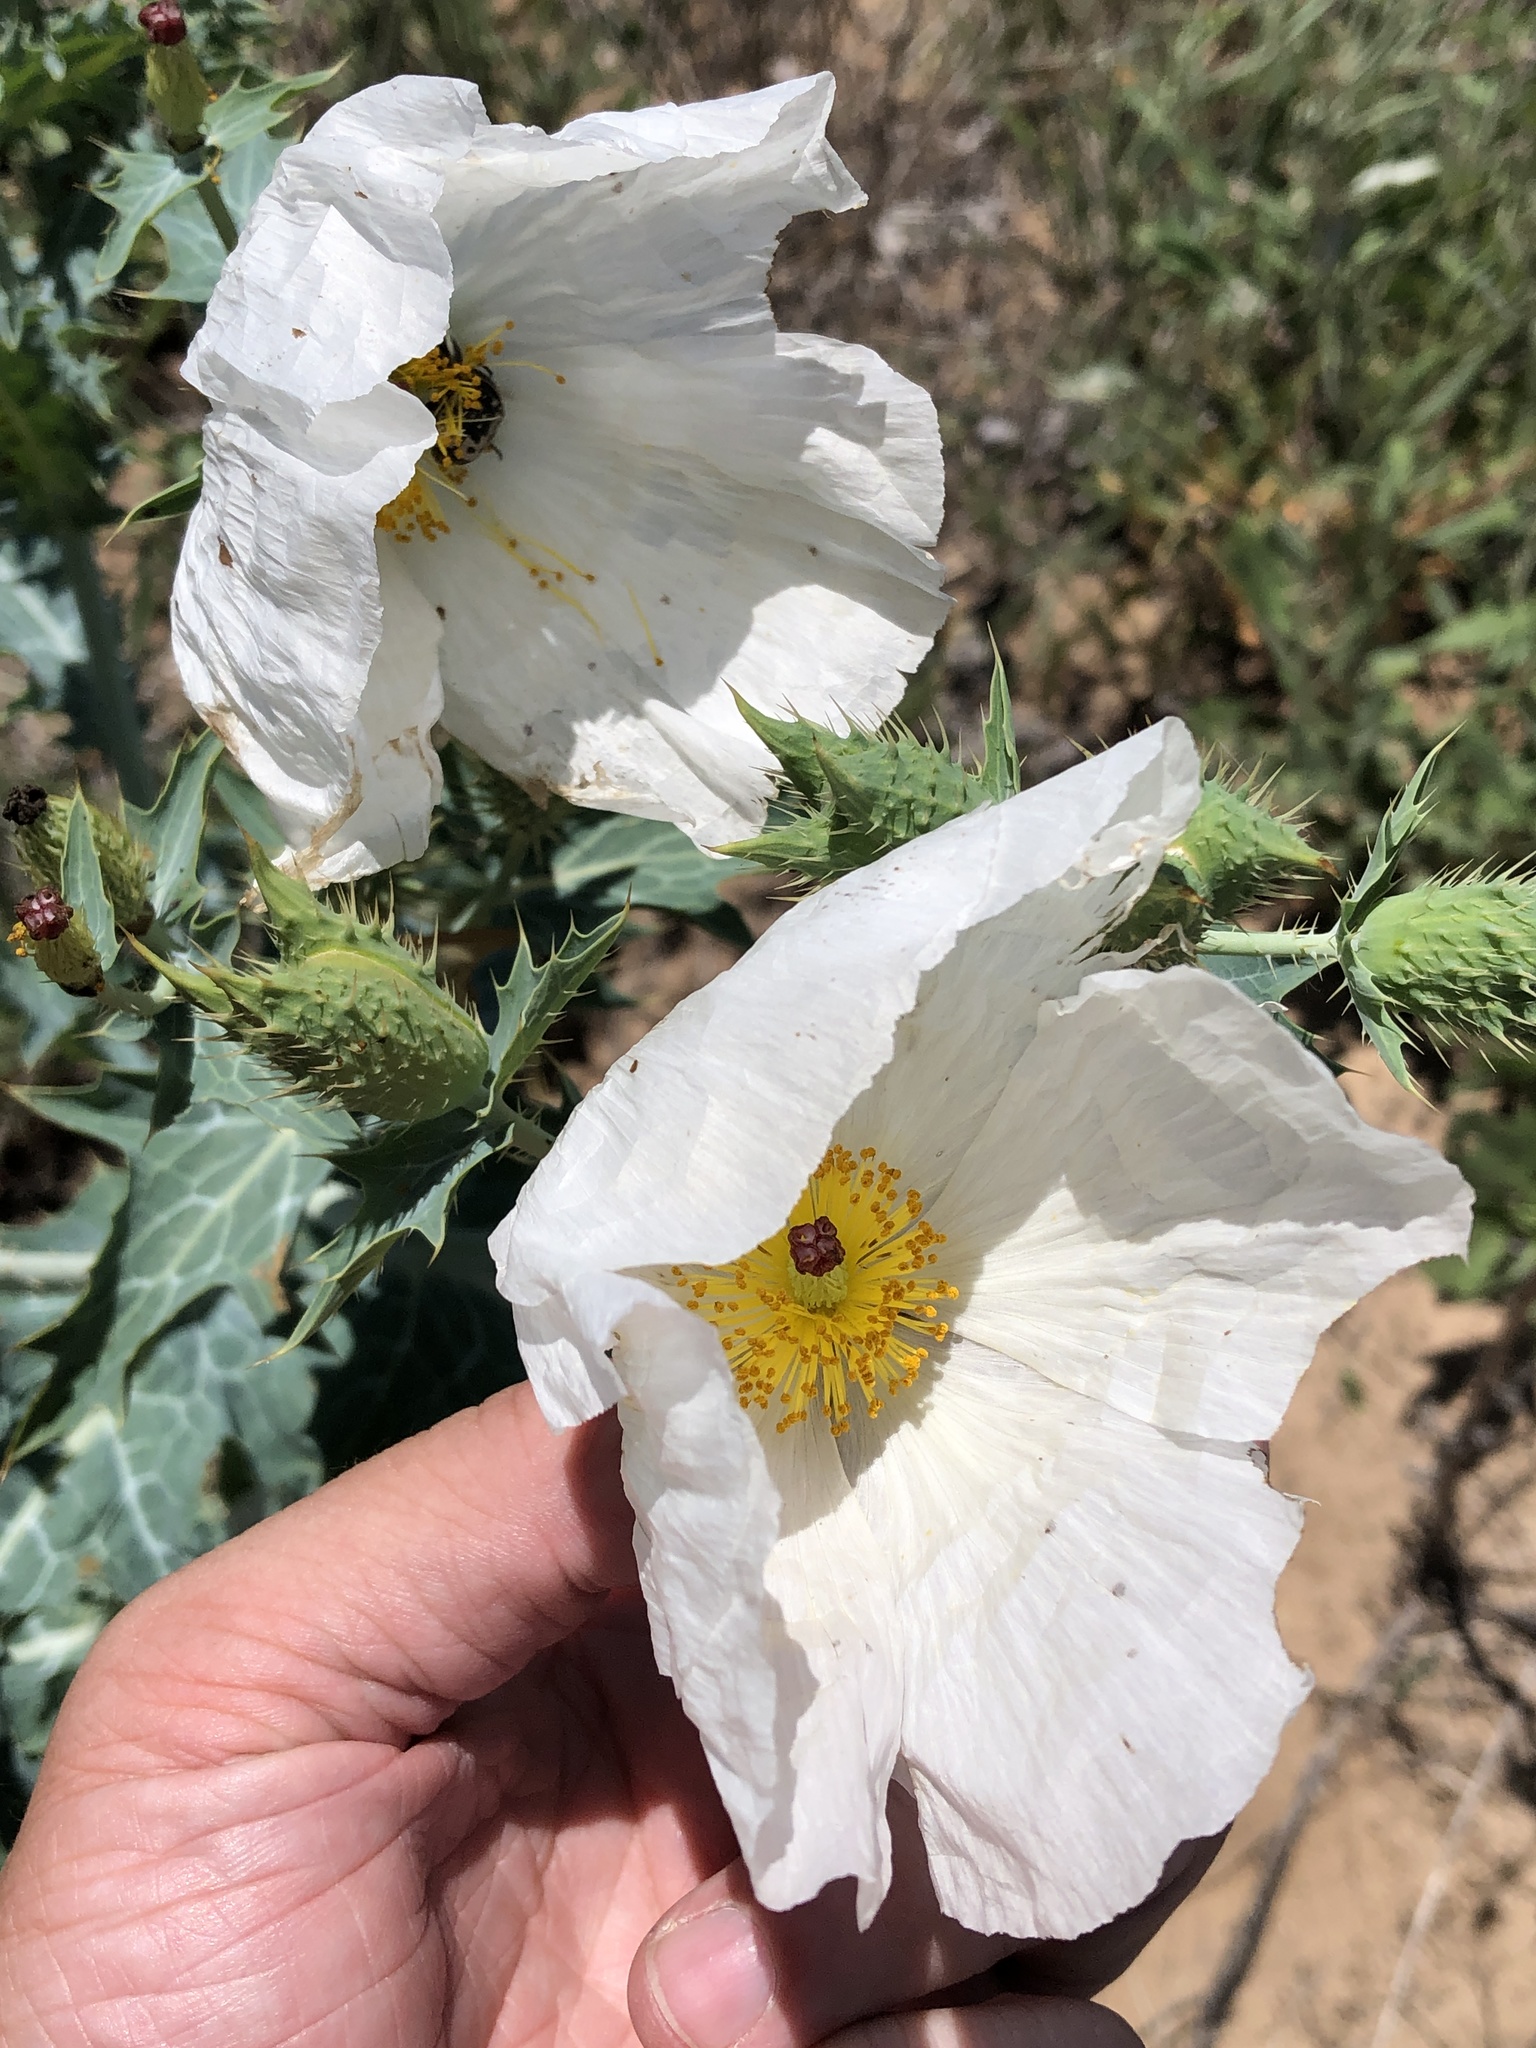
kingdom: Plantae
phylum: Tracheophyta
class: Magnoliopsida
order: Ranunculales
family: Papaveraceae
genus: Argemone
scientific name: Argemone polyanthemos
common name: Plains prickly-poppy
